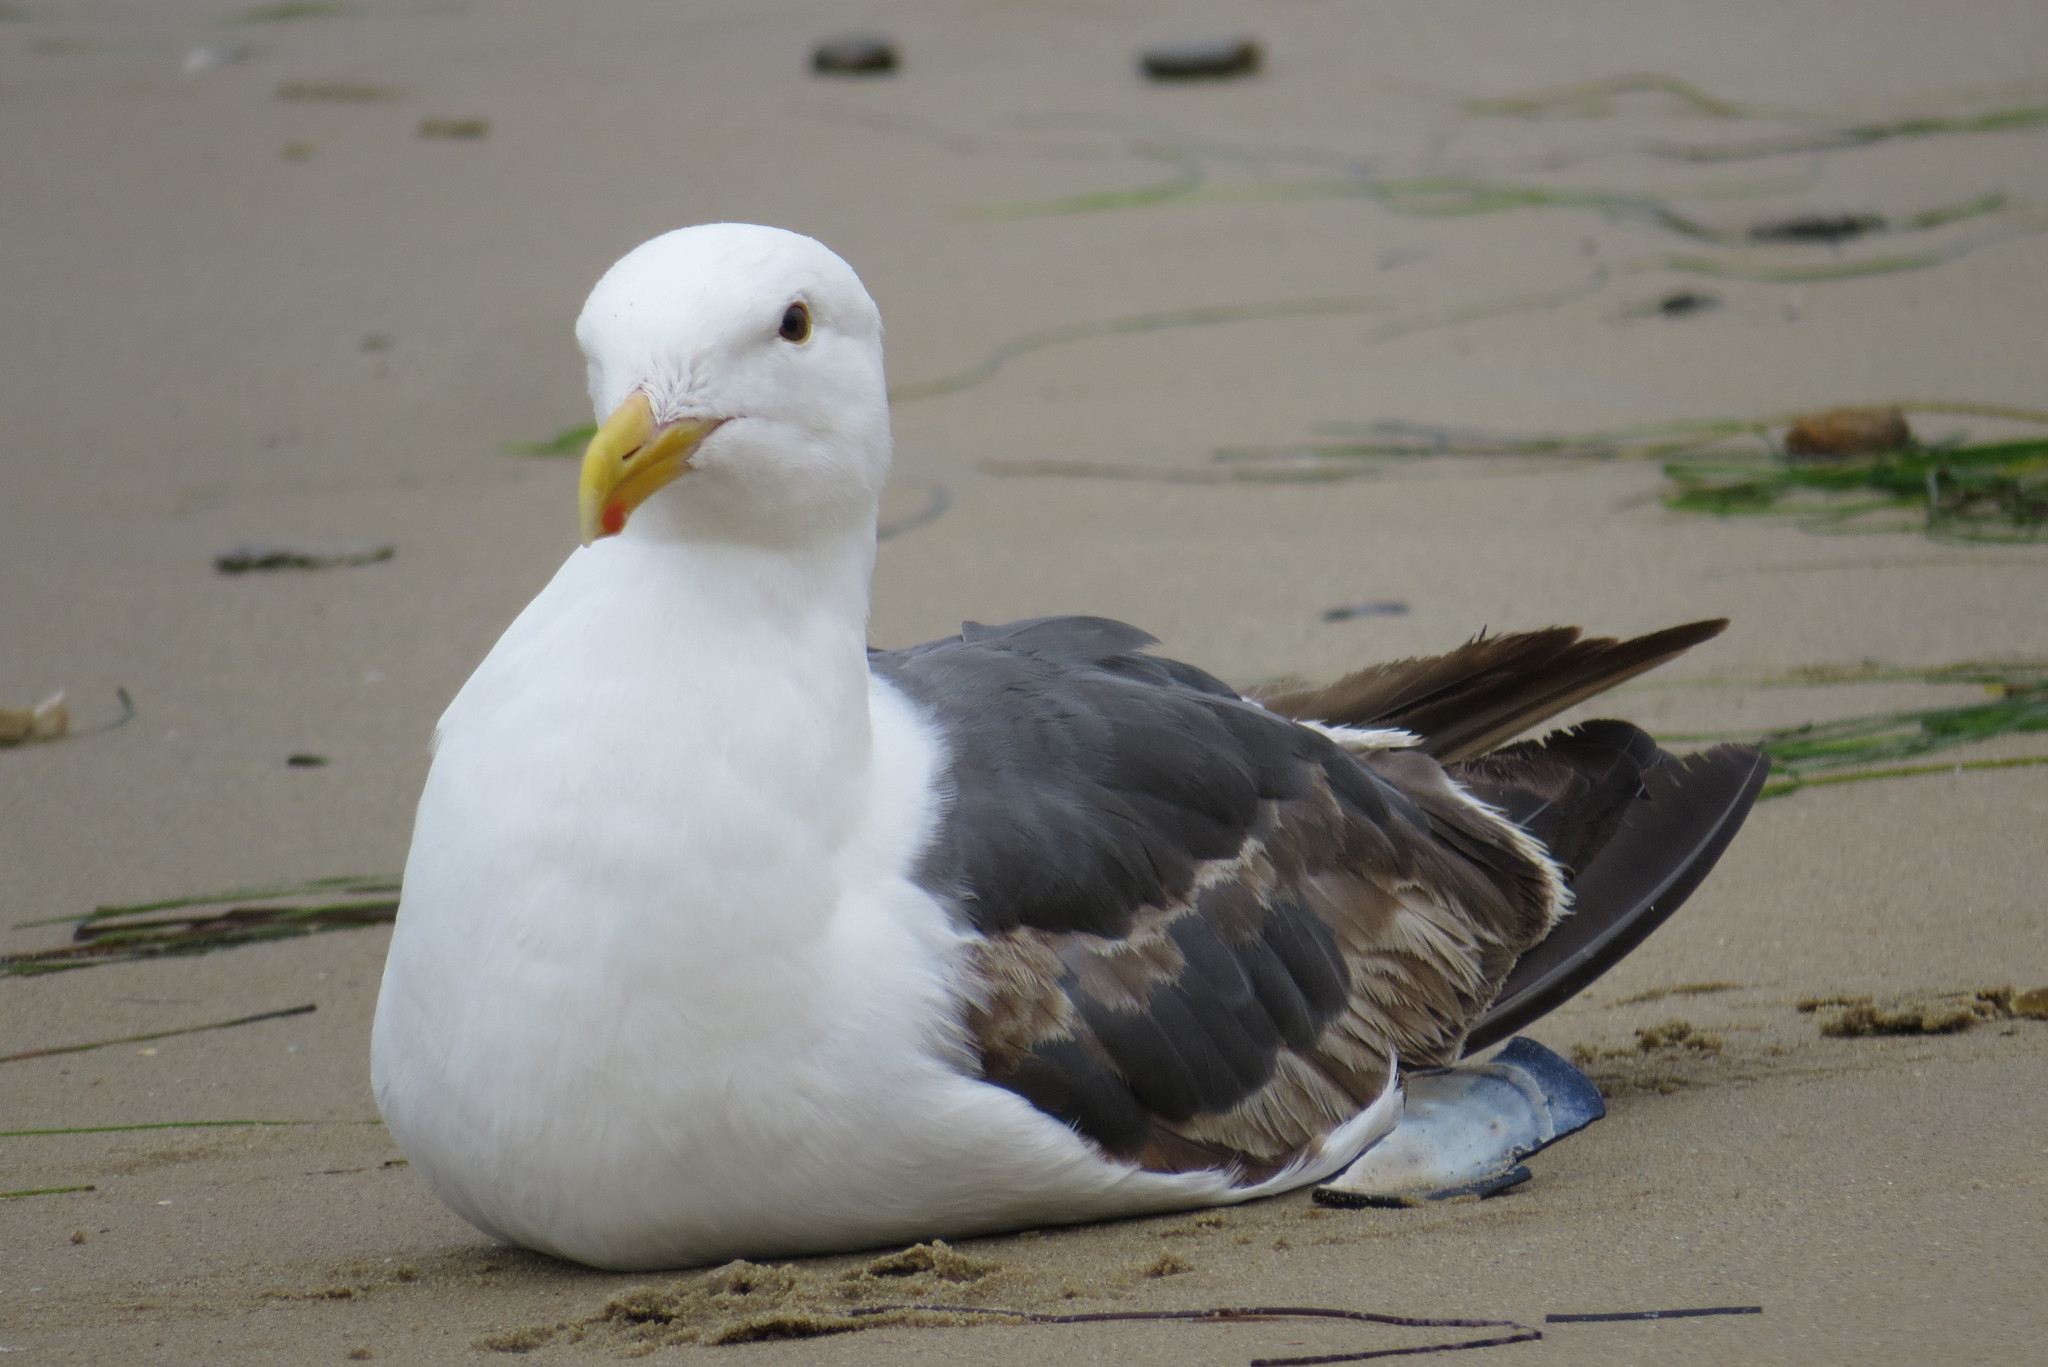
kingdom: Animalia
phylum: Chordata
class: Aves
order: Charadriiformes
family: Laridae
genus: Larus
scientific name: Larus occidentalis
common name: Western gull
